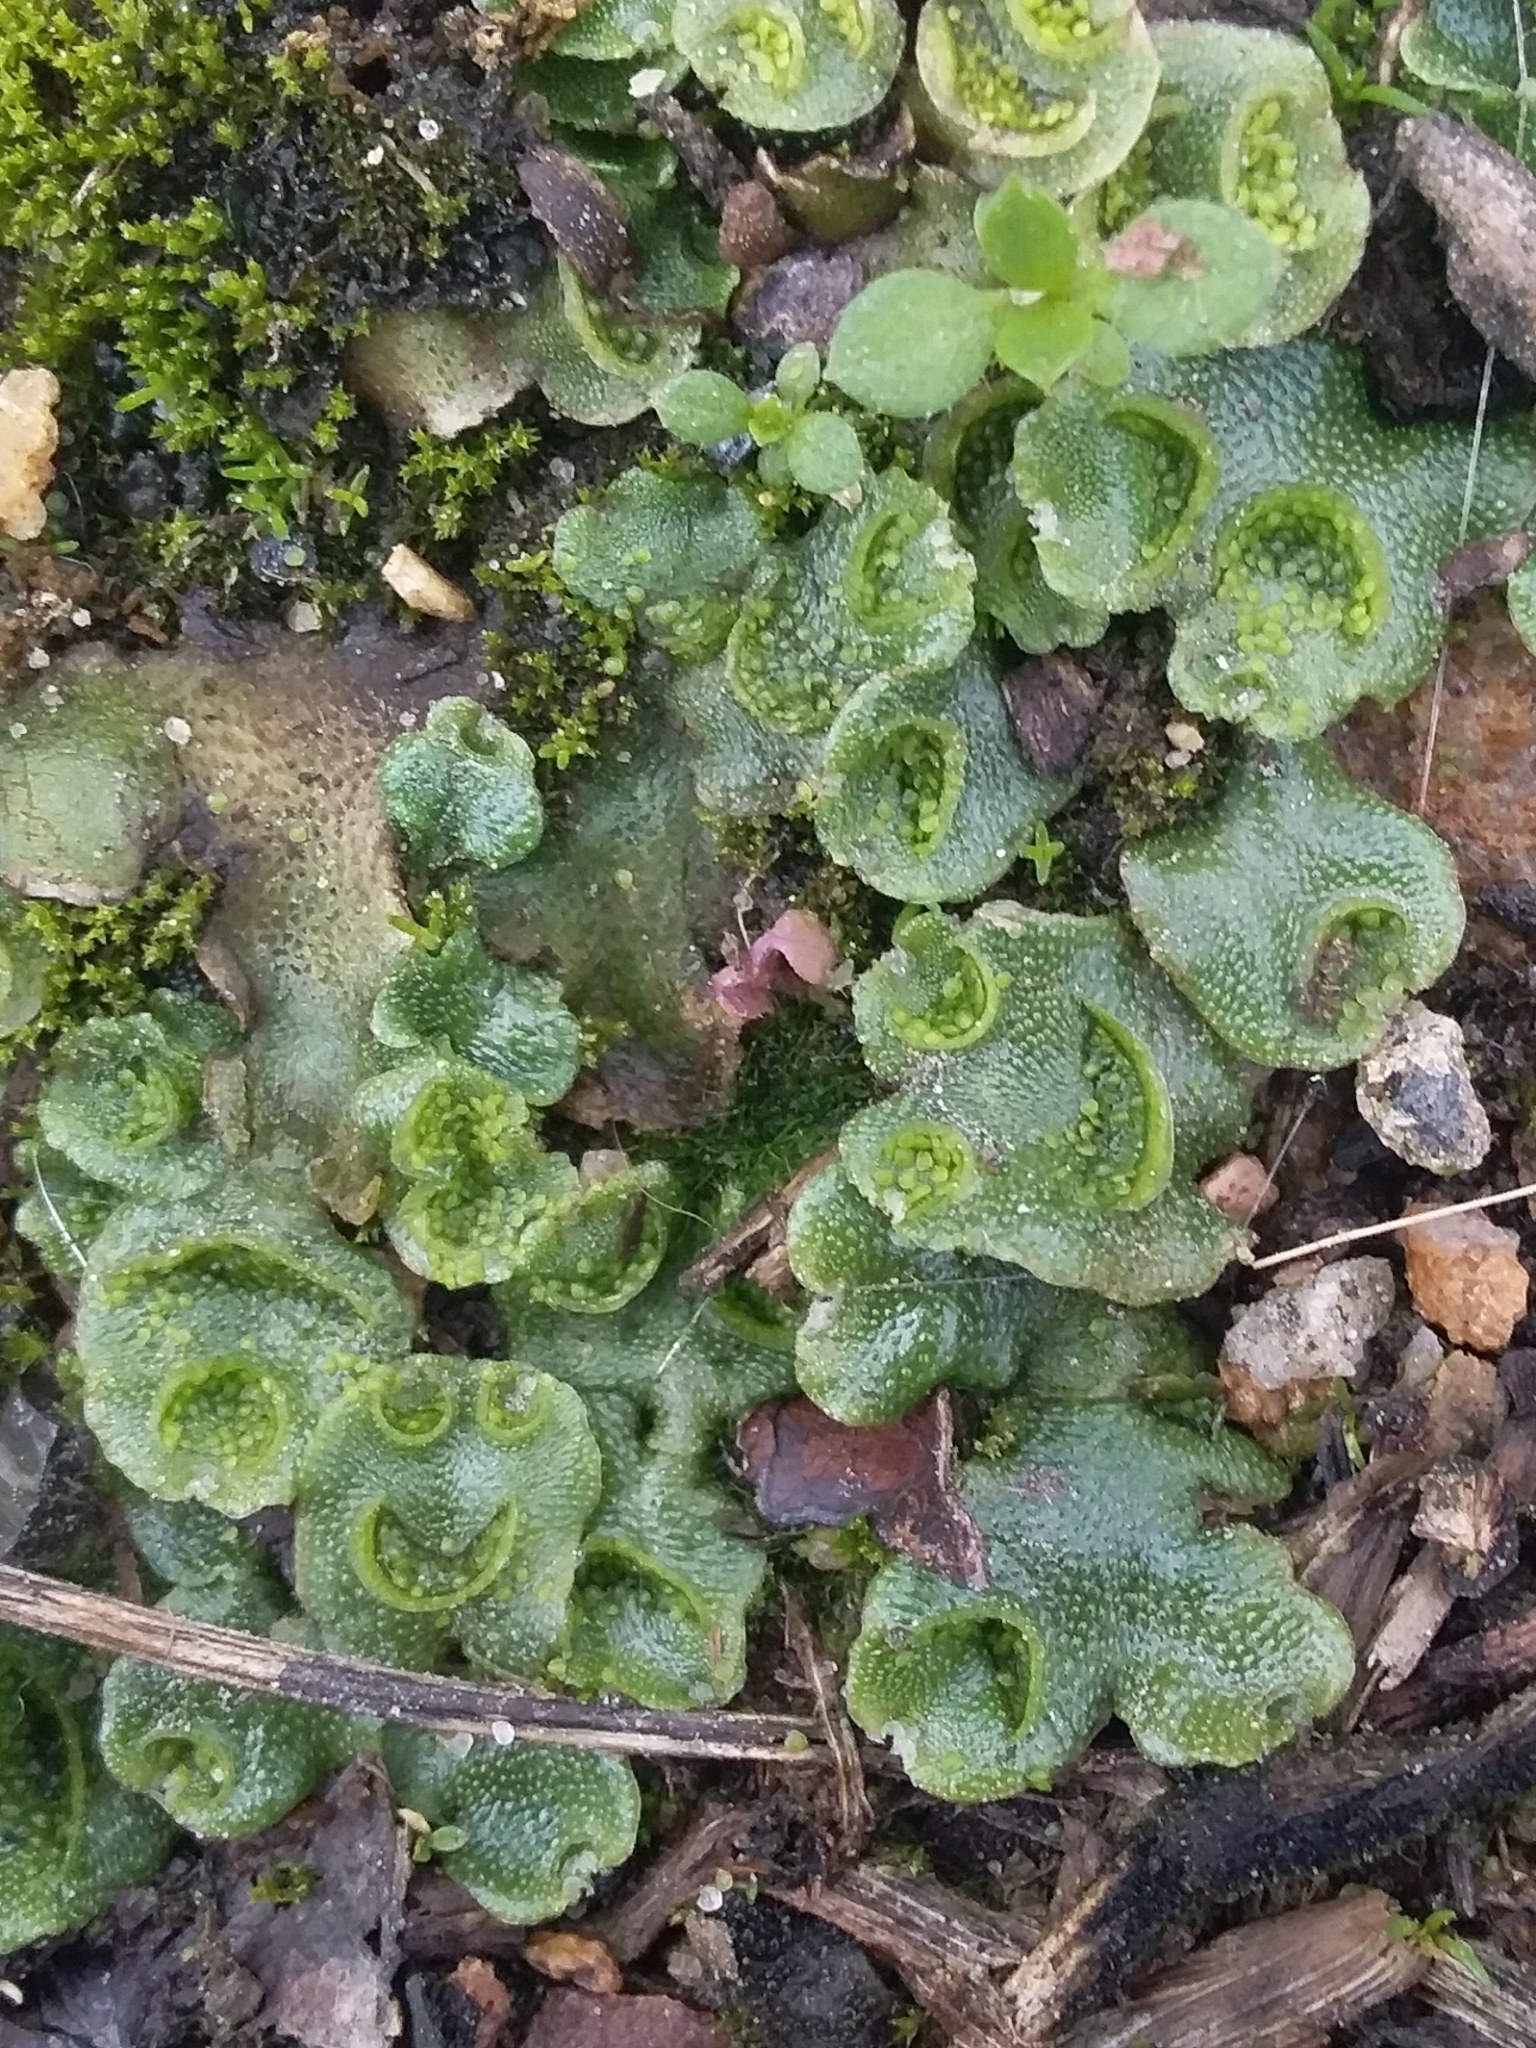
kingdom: Plantae
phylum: Marchantiophyta
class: Marchantiopsida
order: Lunulariales
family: Lunulariaceae
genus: Lunularia
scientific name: Lunularia cruciata
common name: Crescent-cup liverwort
